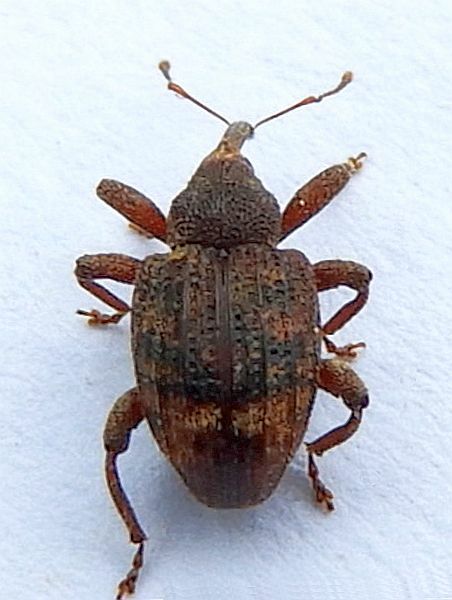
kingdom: Animalia
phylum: Arthropoda
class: Insecta
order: Coleoptera
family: Curculionidae
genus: Conotrachelus
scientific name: Conotrachelus posticatus
